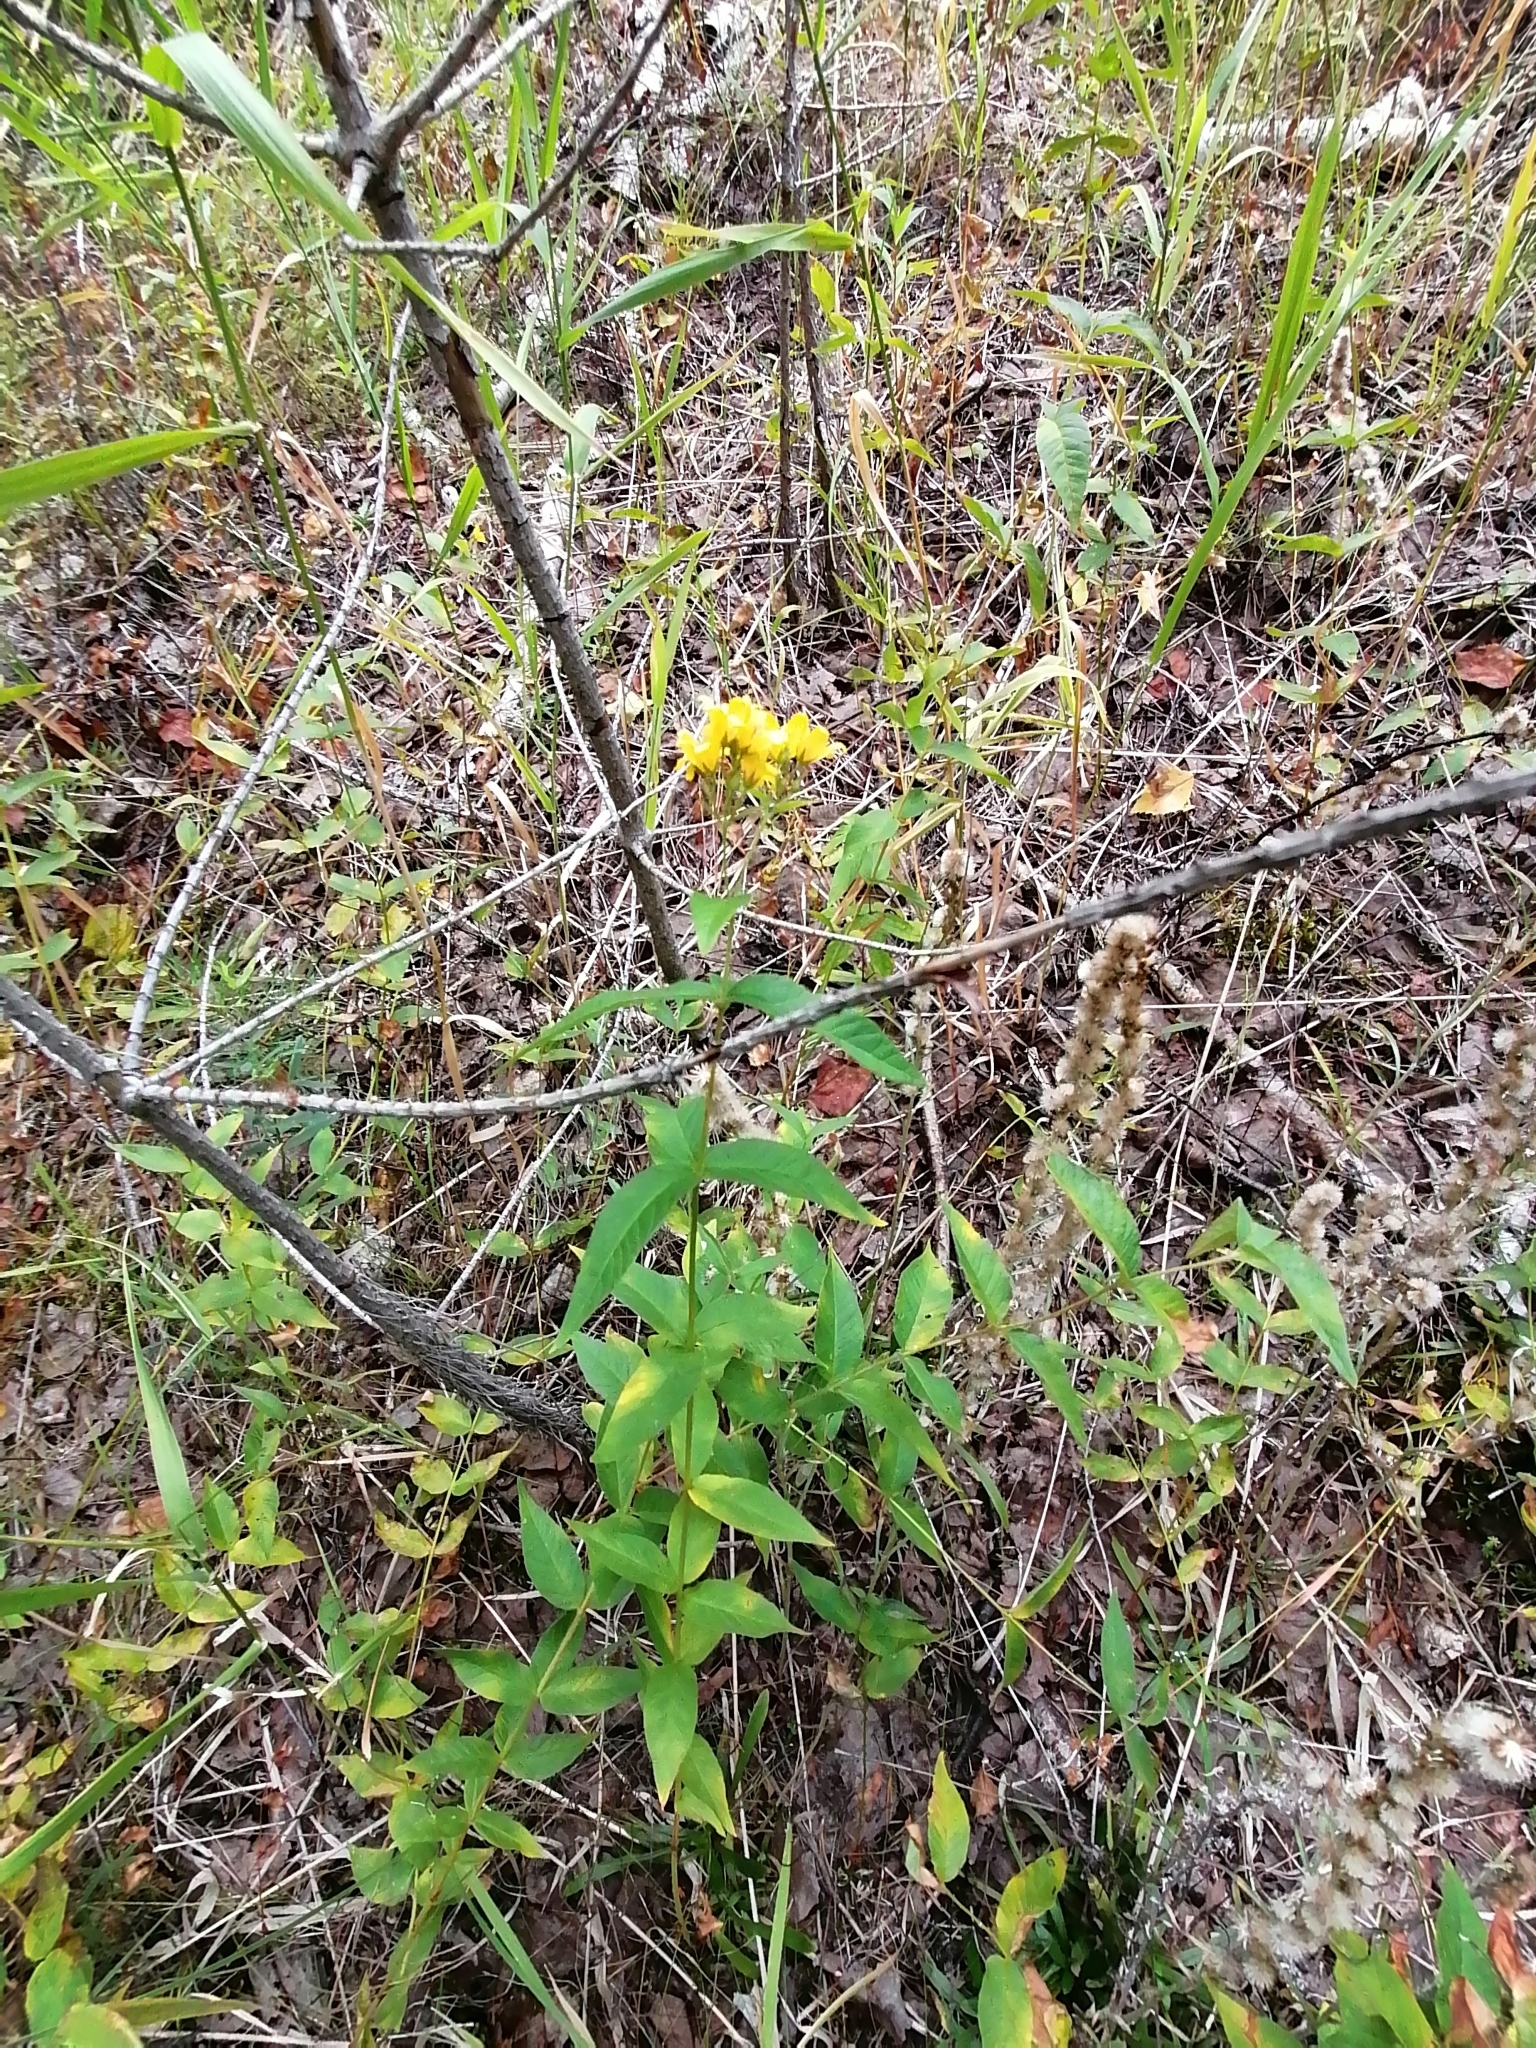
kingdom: Plantae
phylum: Tracheophyta
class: Magnoliopsida
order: Ericales
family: Primulaceae
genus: Lysimachia
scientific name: Lysimachia vulgaris
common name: Yellow loosestrife
